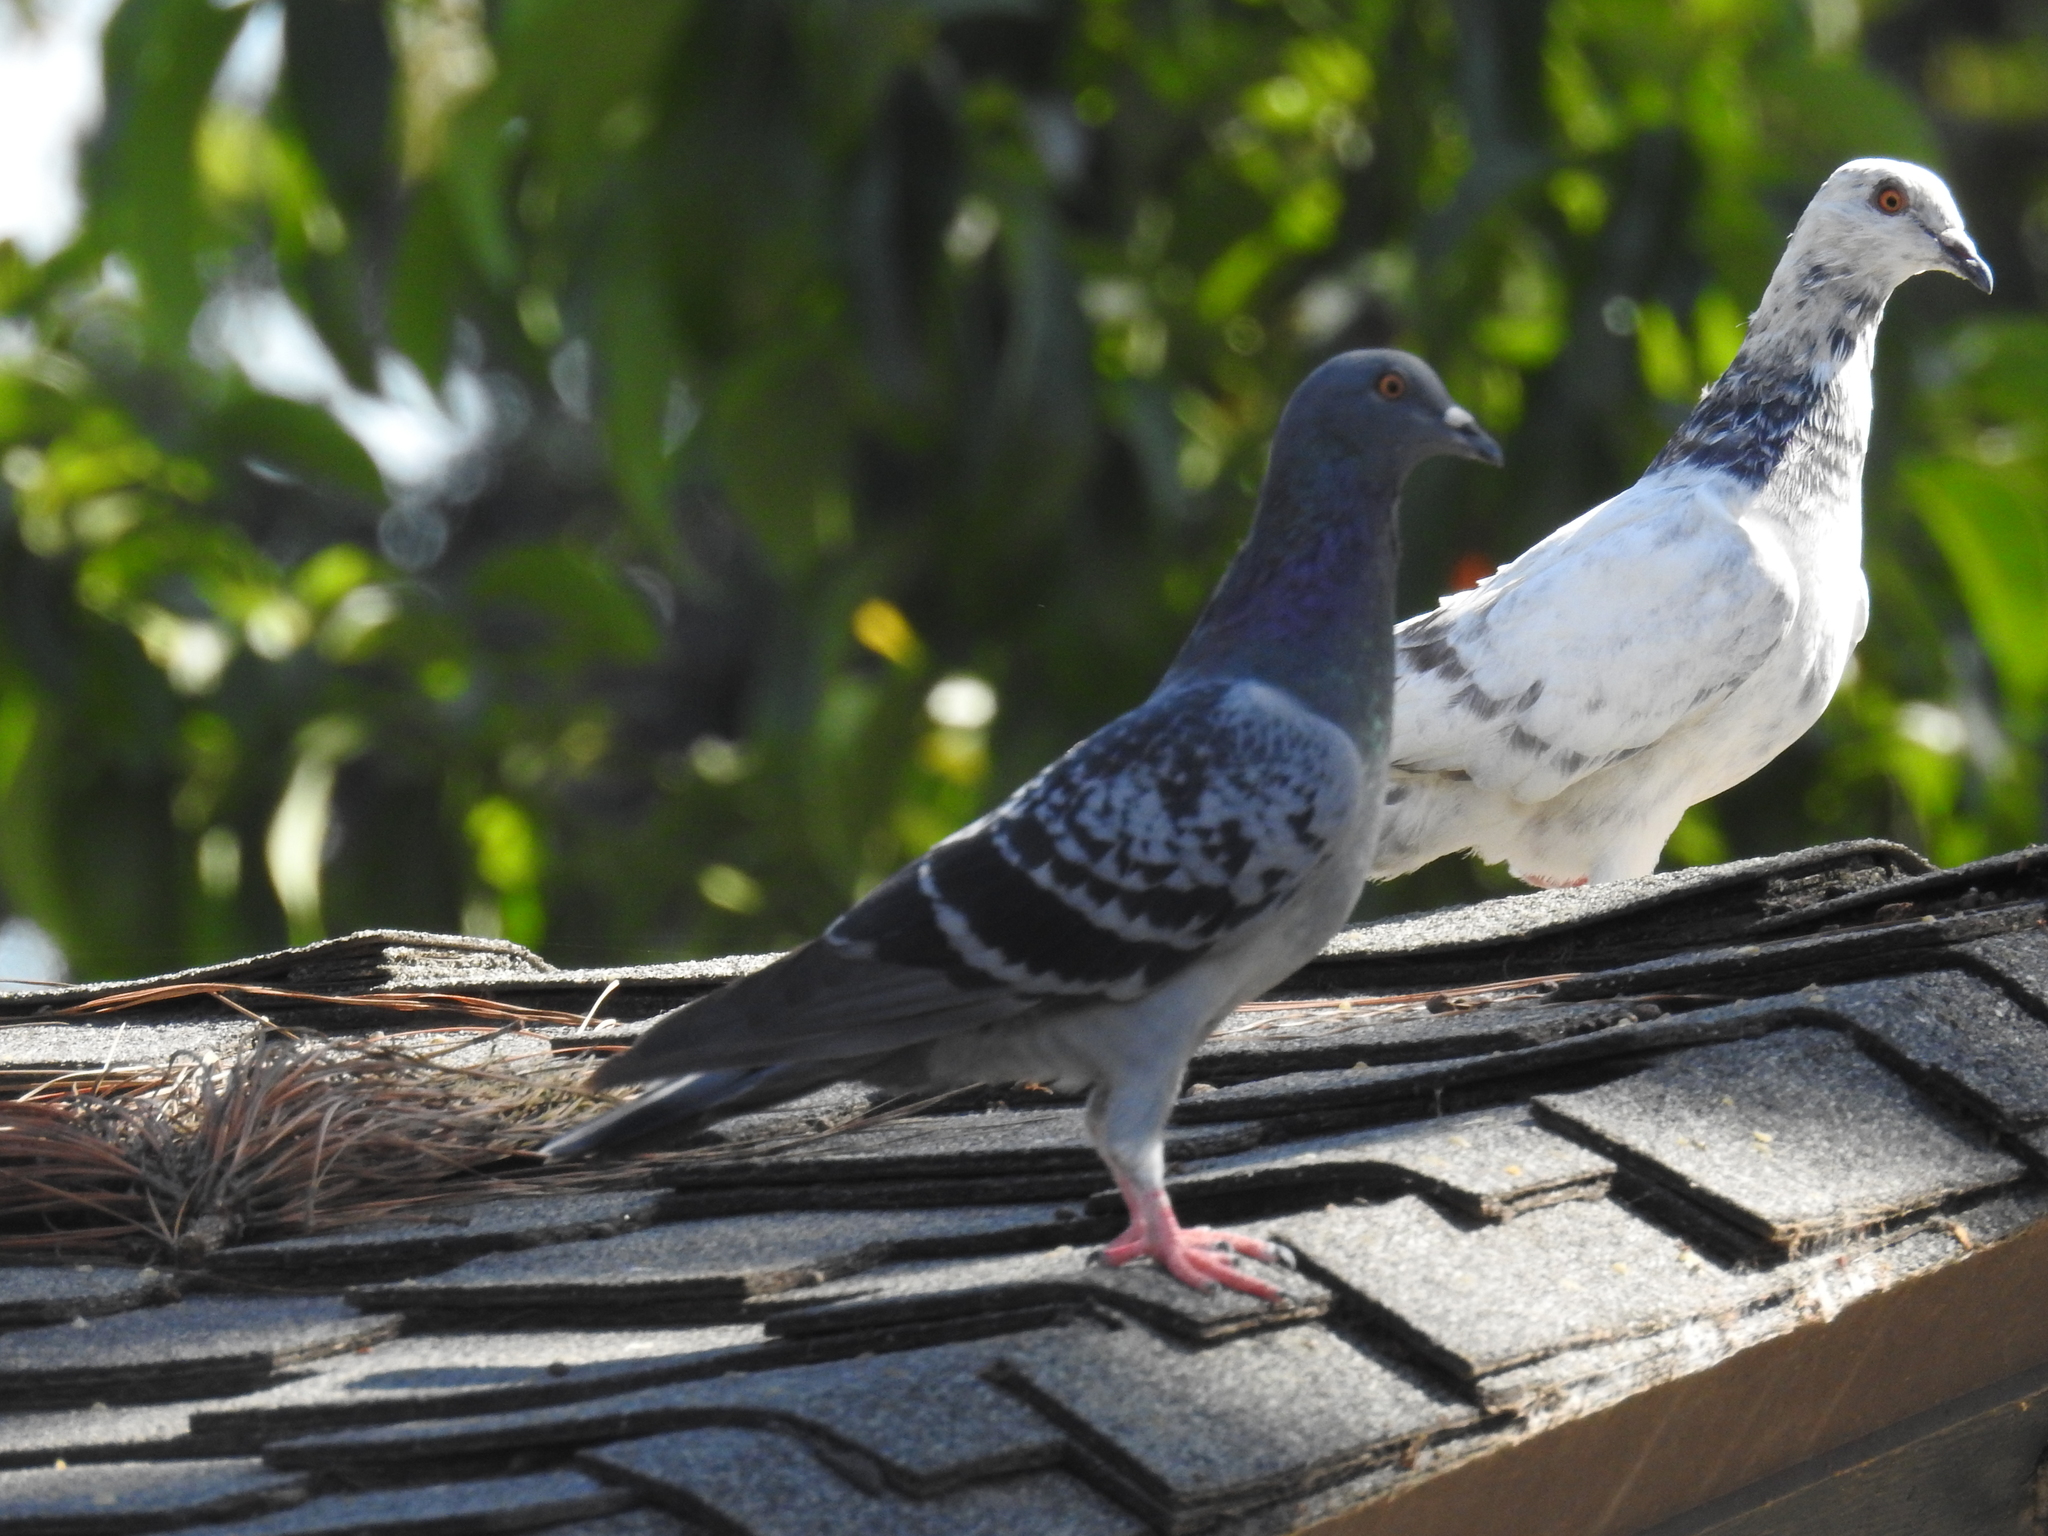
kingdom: Animalia
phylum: Chordata
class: Aves
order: Columbiformes
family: Columbidae
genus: Columba
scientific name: Columba livia
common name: Rock pigeon
